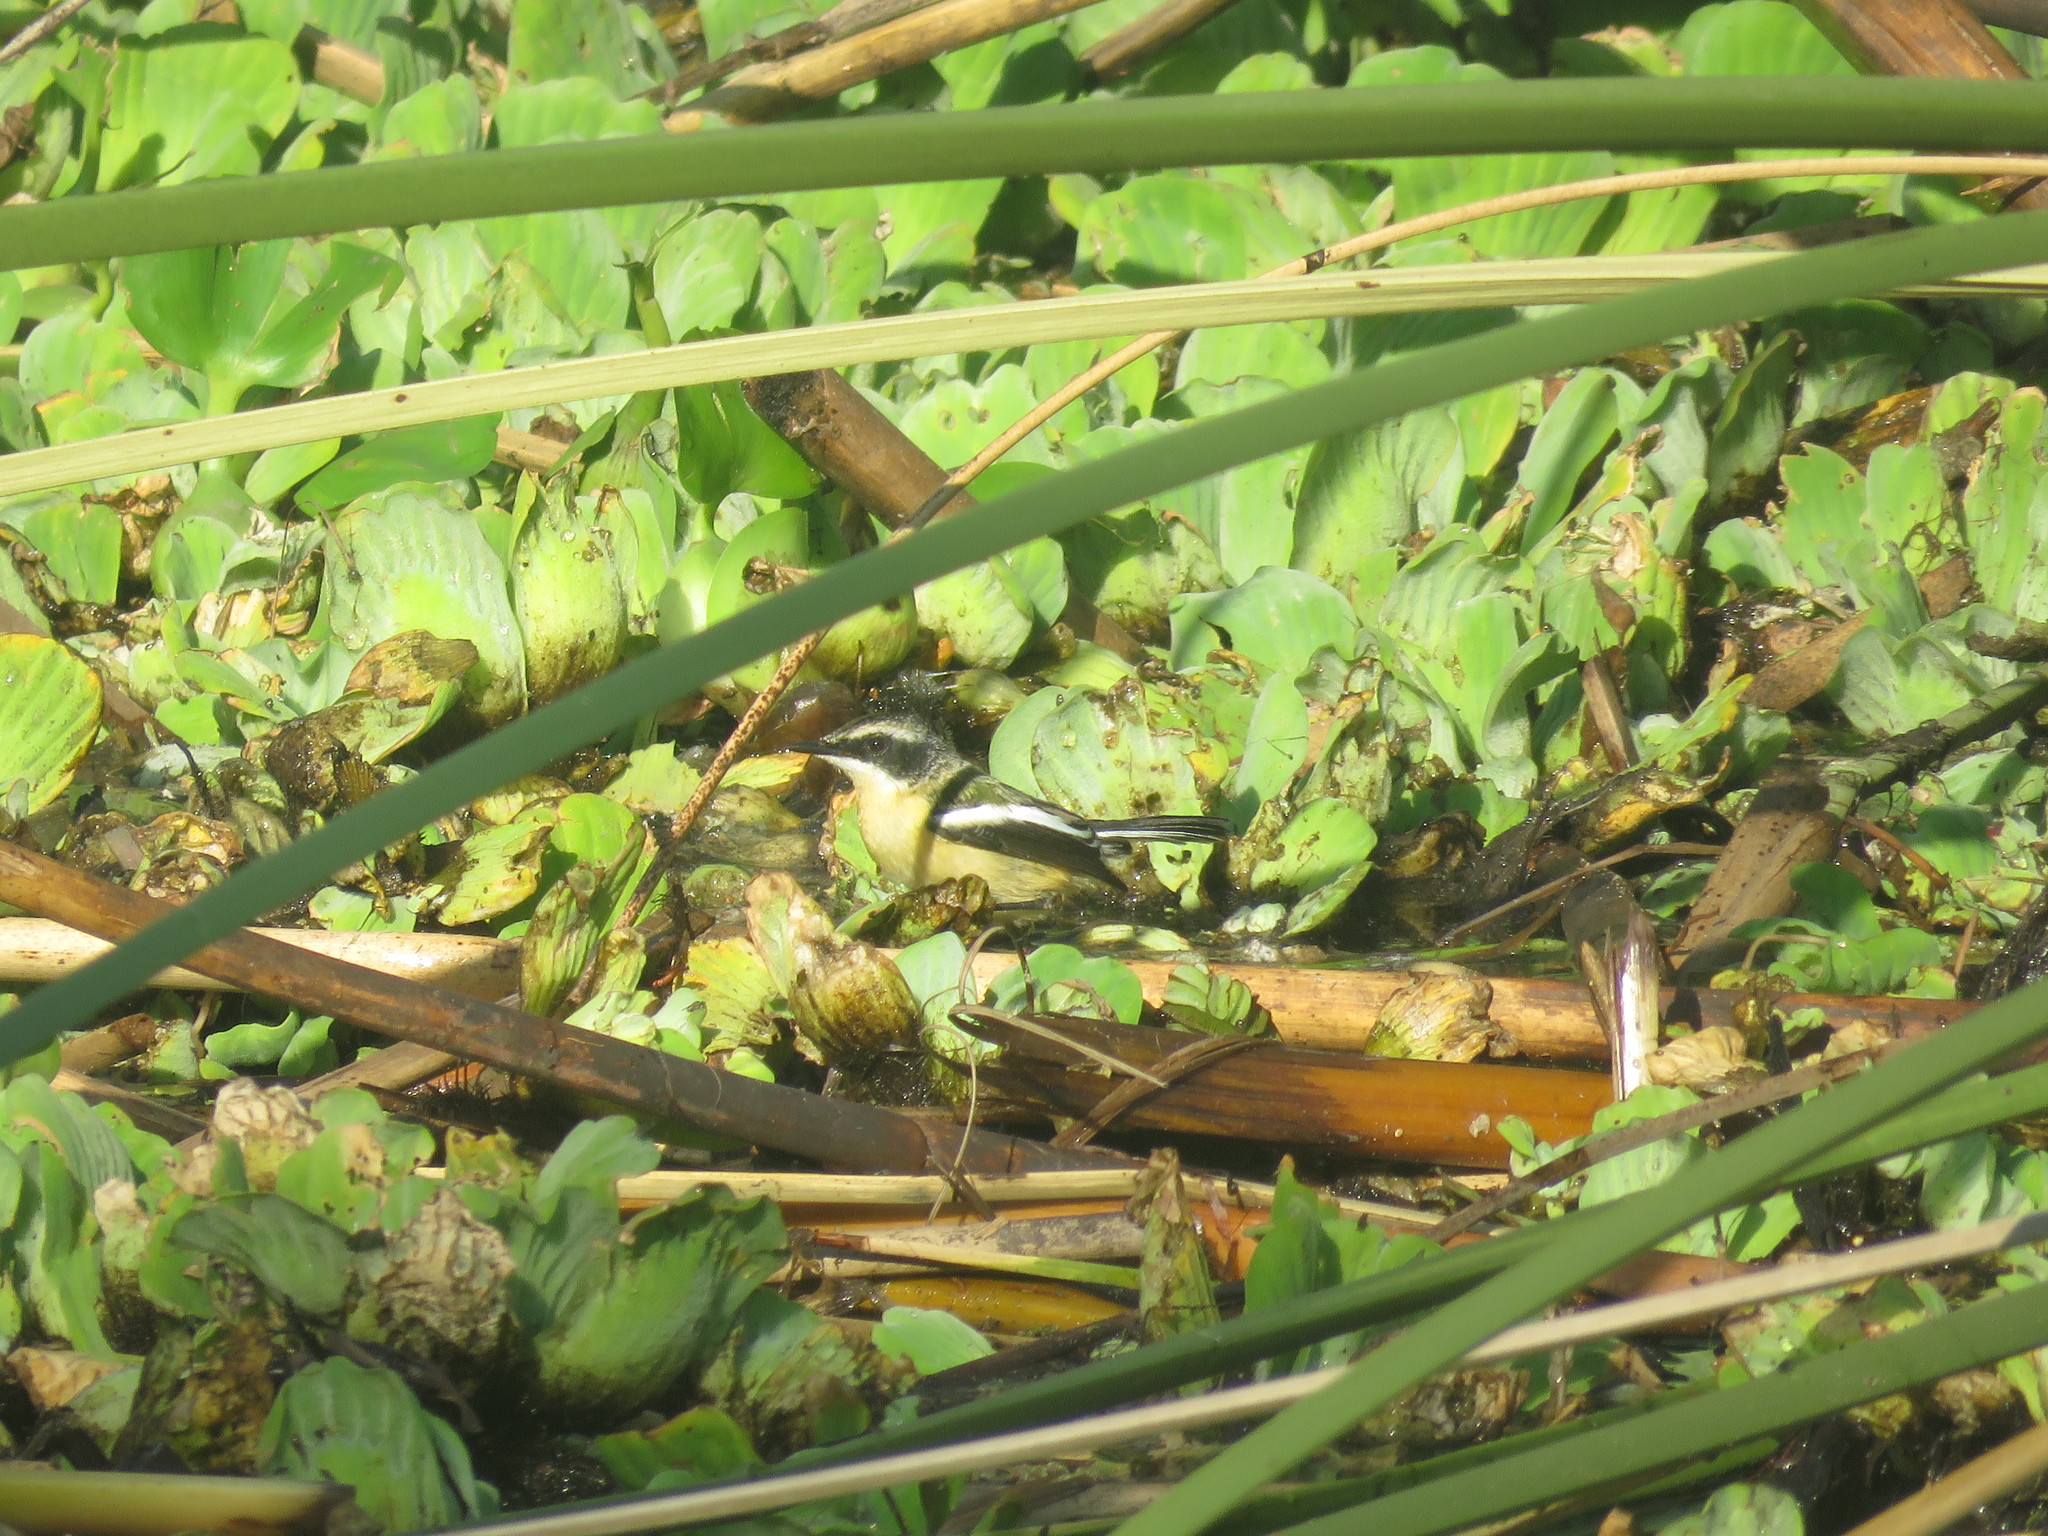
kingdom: Animalia
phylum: Chordata
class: Aves
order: Passeriformes
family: Tyrannidae
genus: Tachuris
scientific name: Tachuris rubrigastra
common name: Many-colored rush tyrant
